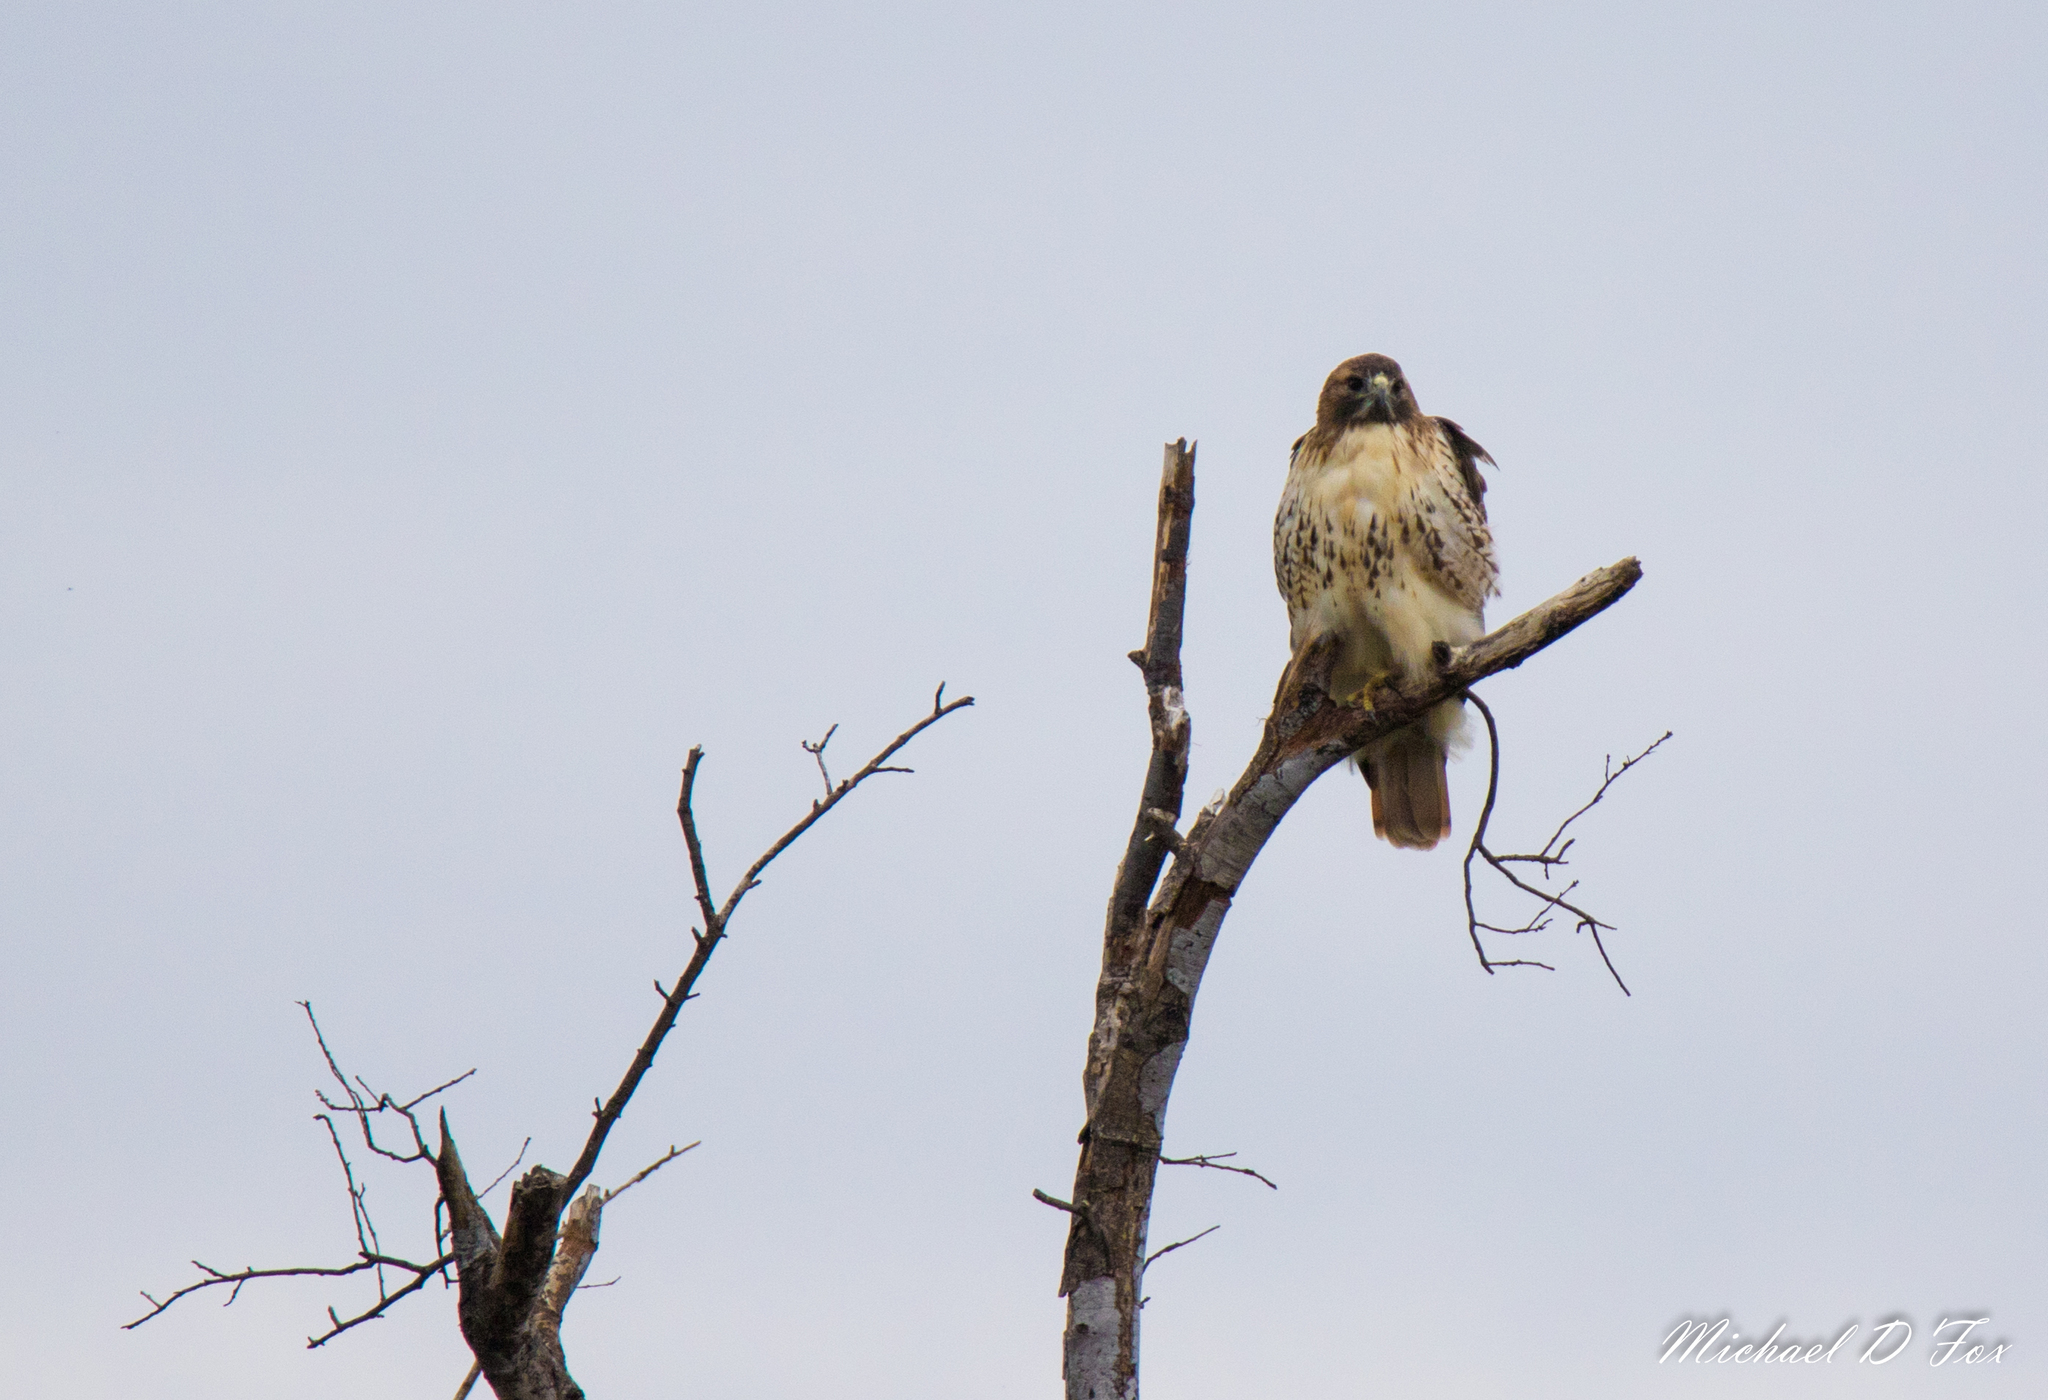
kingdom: Animalia
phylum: Chordata
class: Aves
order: Accipitriformes
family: Accipitridae
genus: Buteo
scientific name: Buteo jamaicensis
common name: Red-tailed hawk
